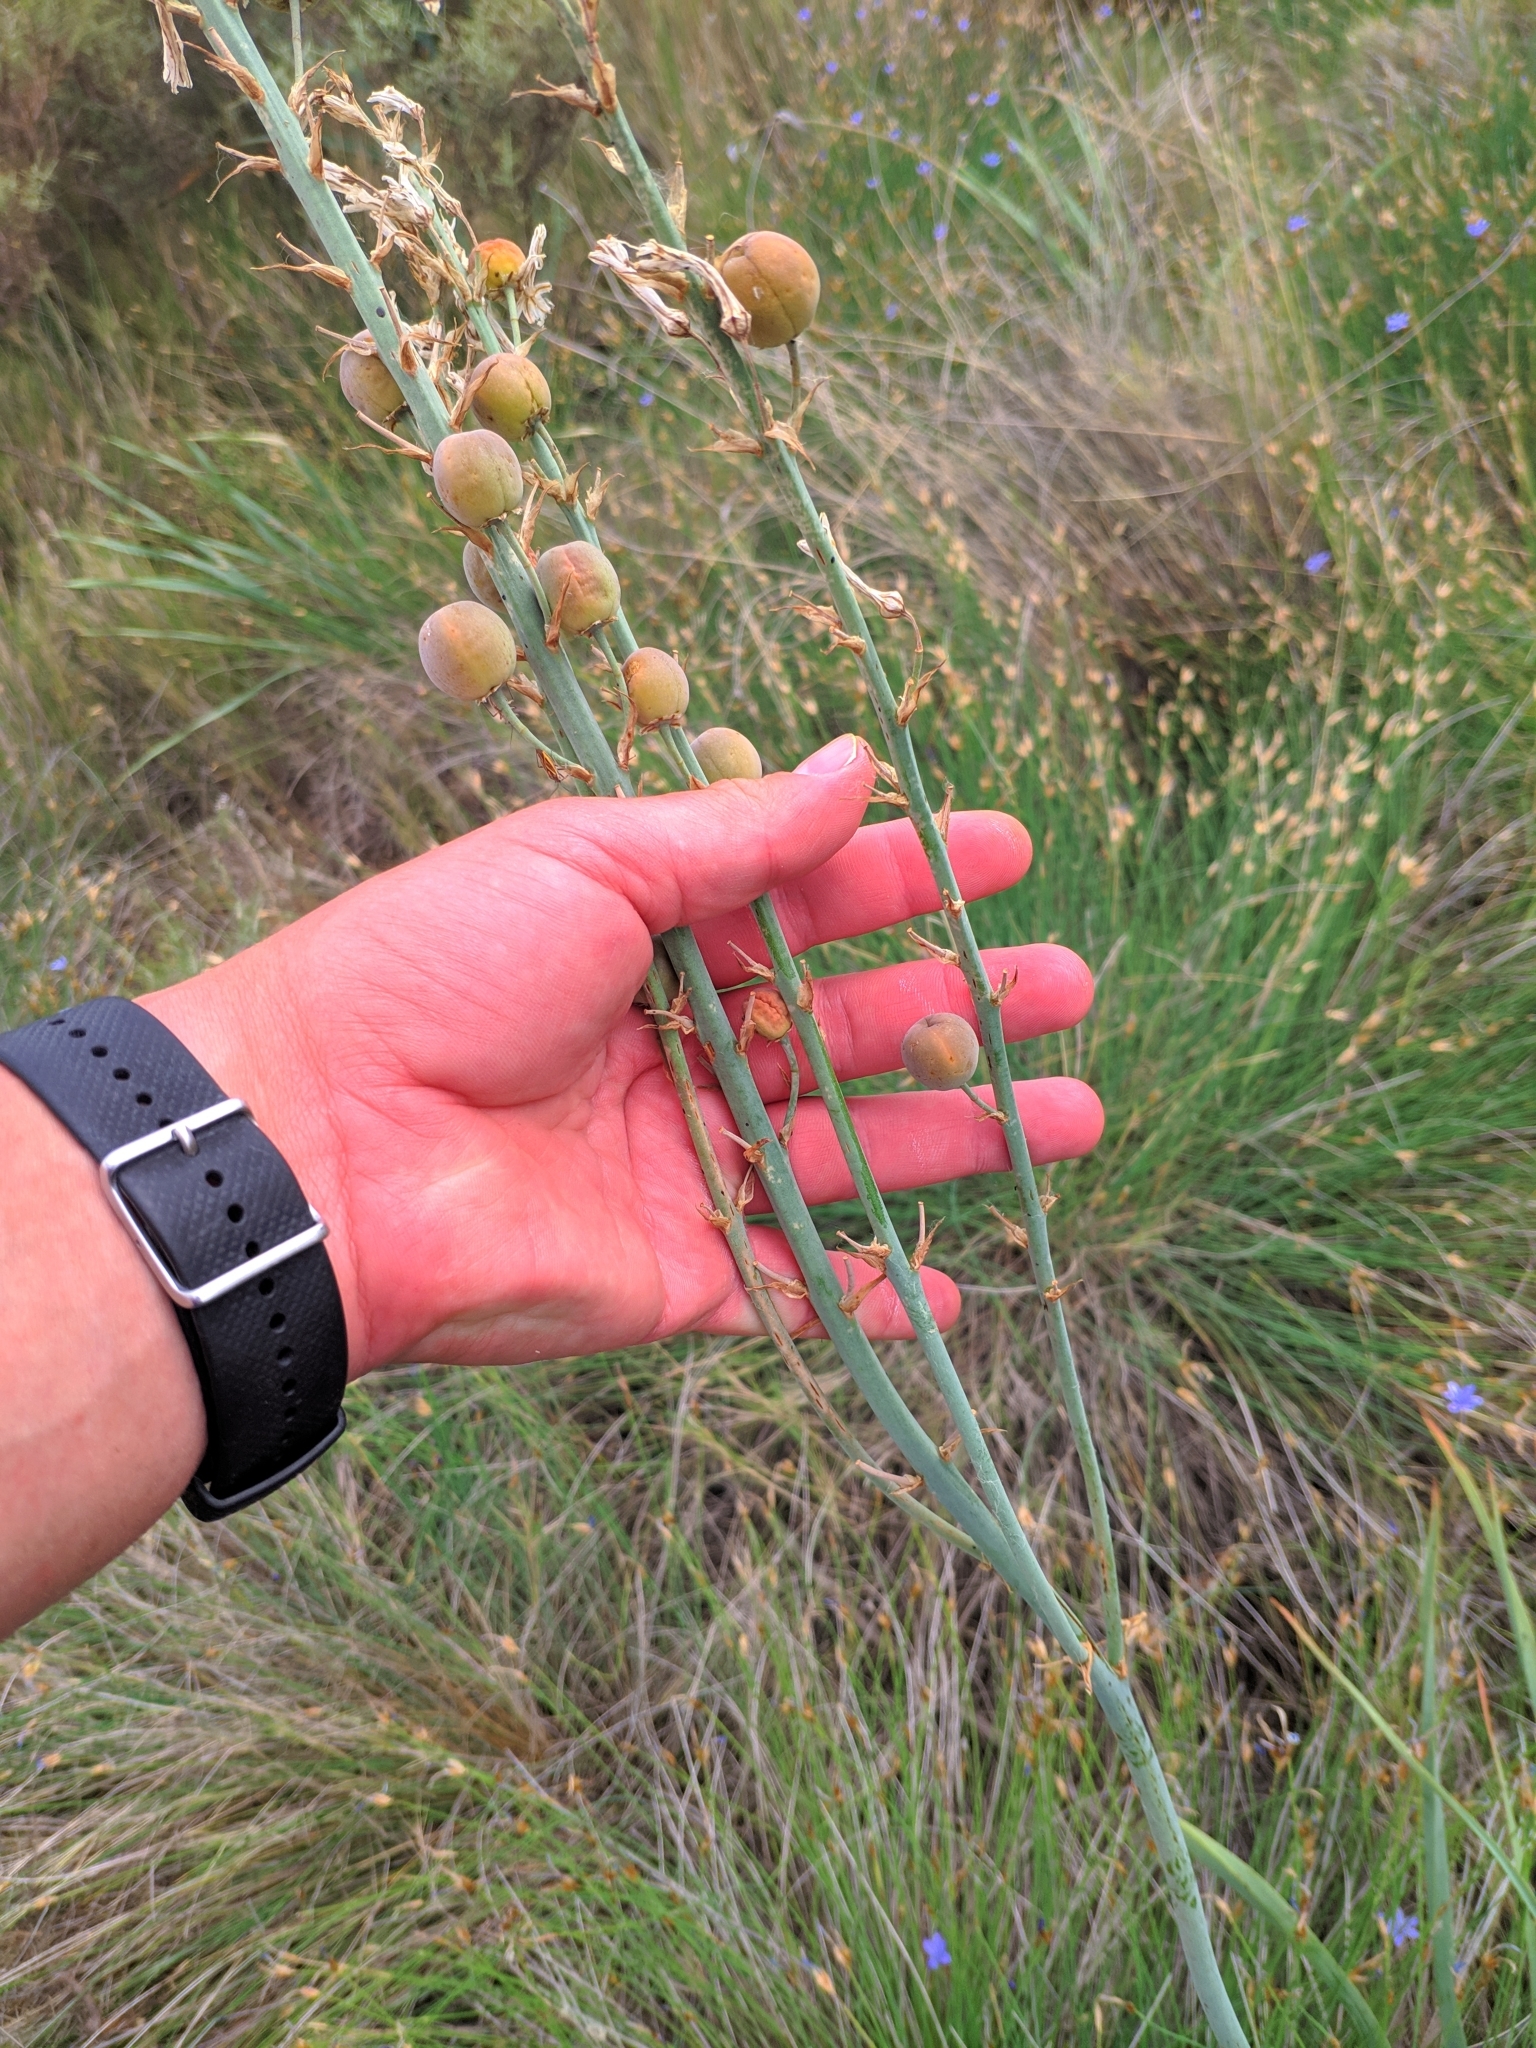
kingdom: Plantae
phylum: Tracheophyta
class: Liliopsida
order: Asparagales
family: Asphodelaceae
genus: Asphodelus
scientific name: Asphodelus cerasifer
